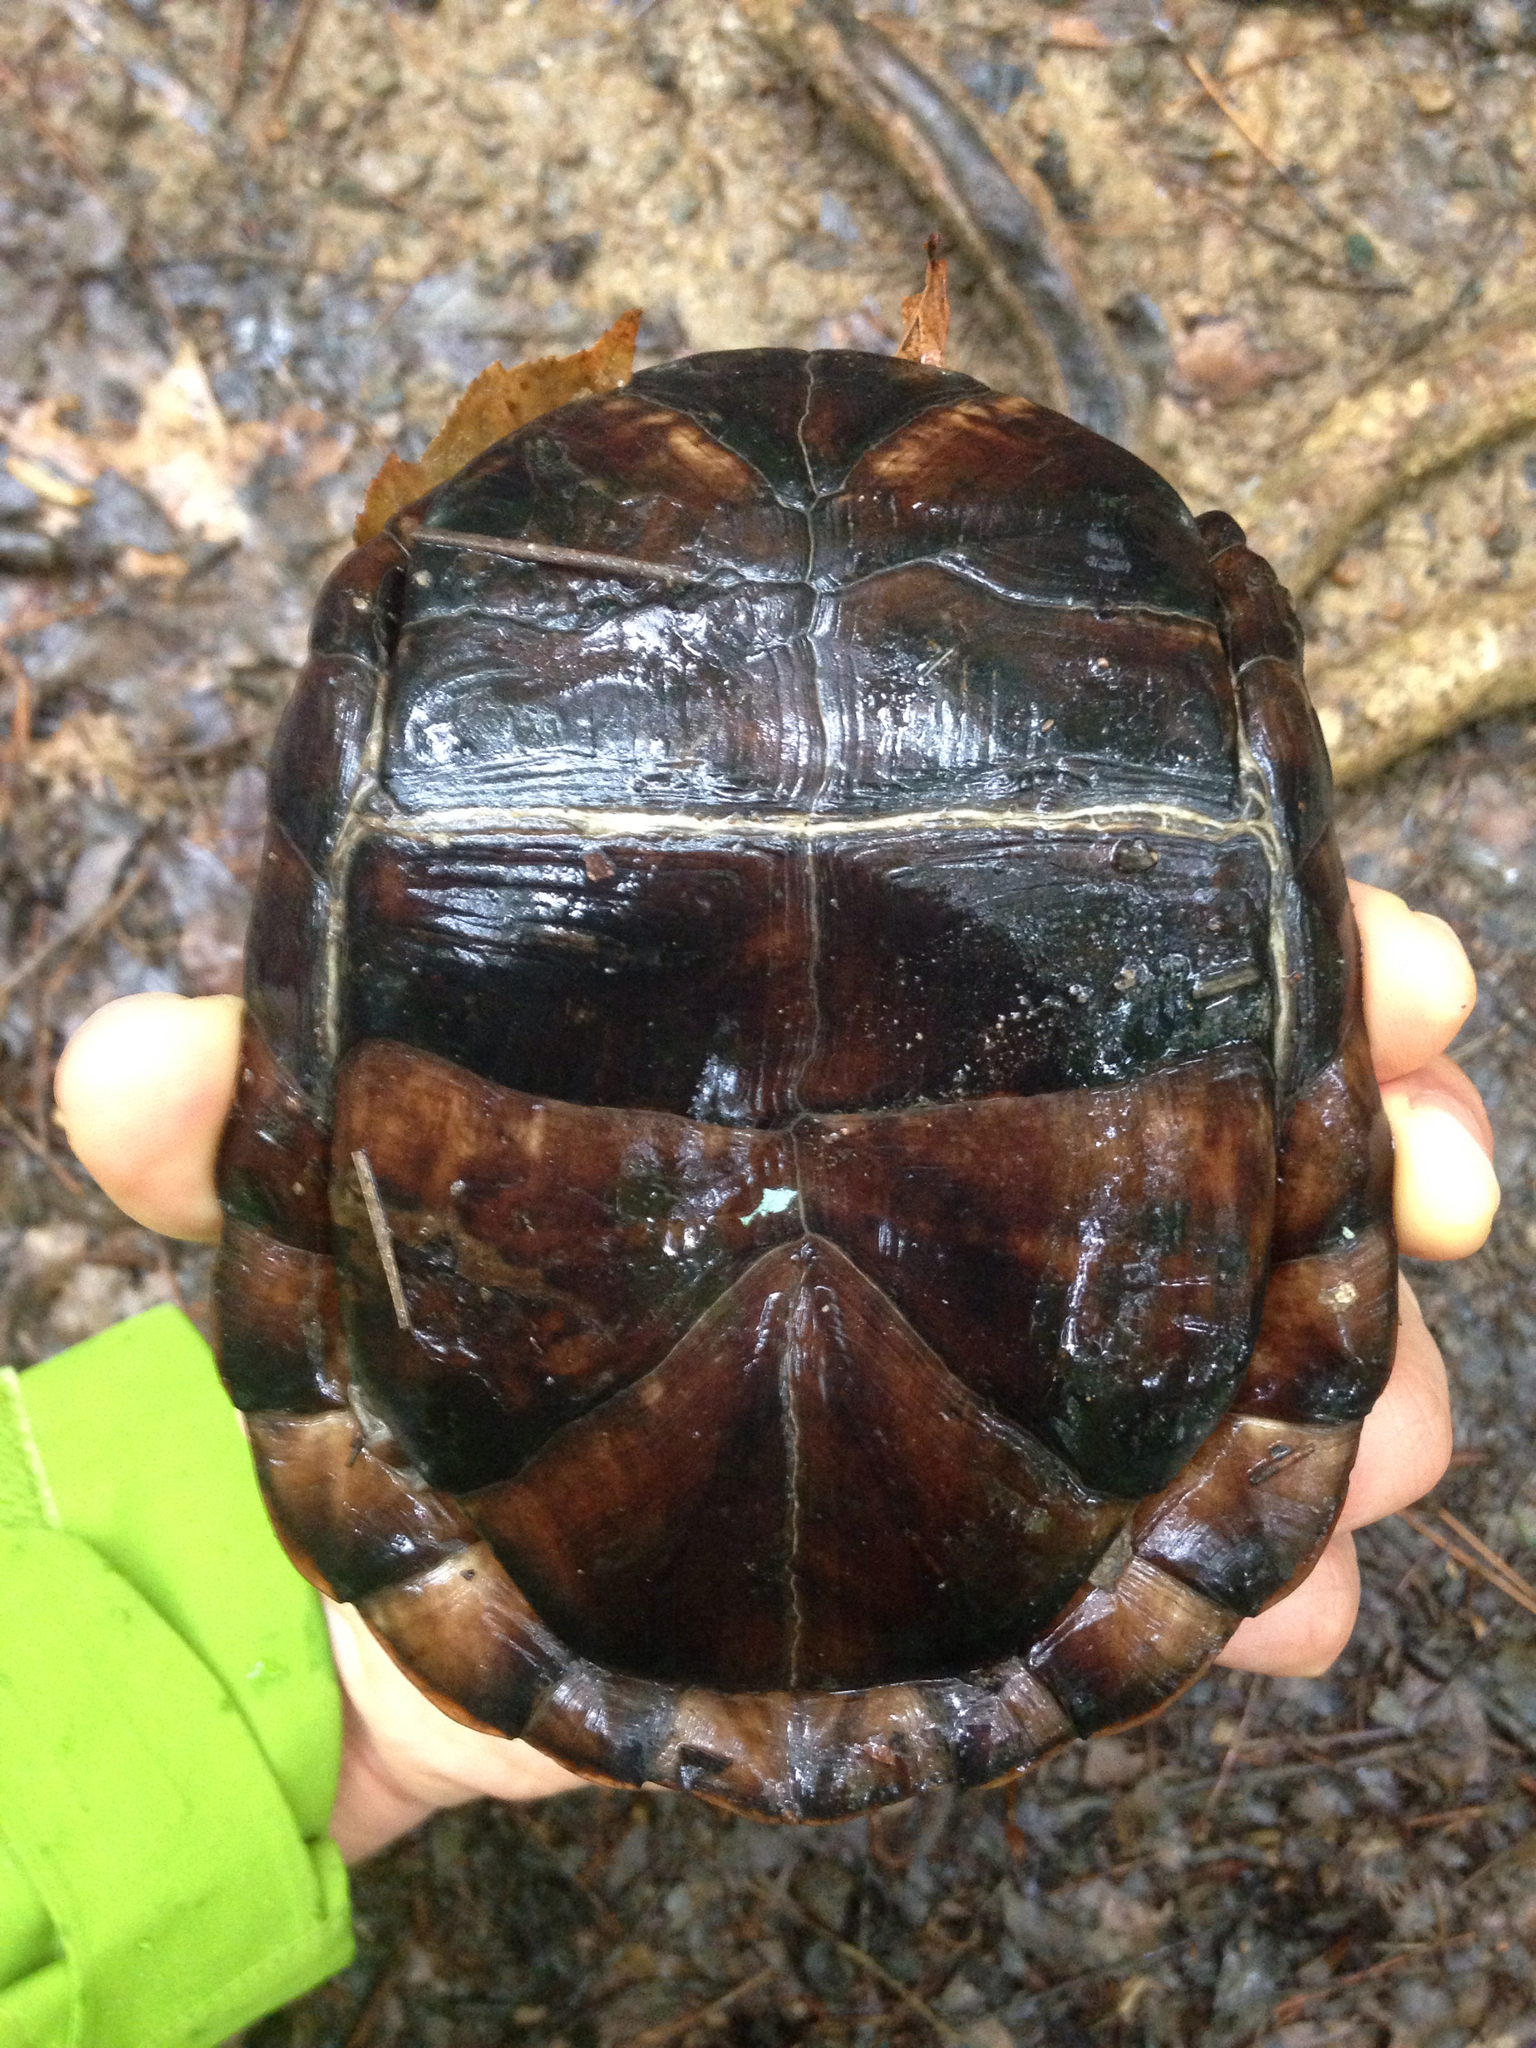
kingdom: Animalia
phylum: Chordata
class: Testudines
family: Emydidae
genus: Terrapene
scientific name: Terrapene carolina
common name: Common box turtle
